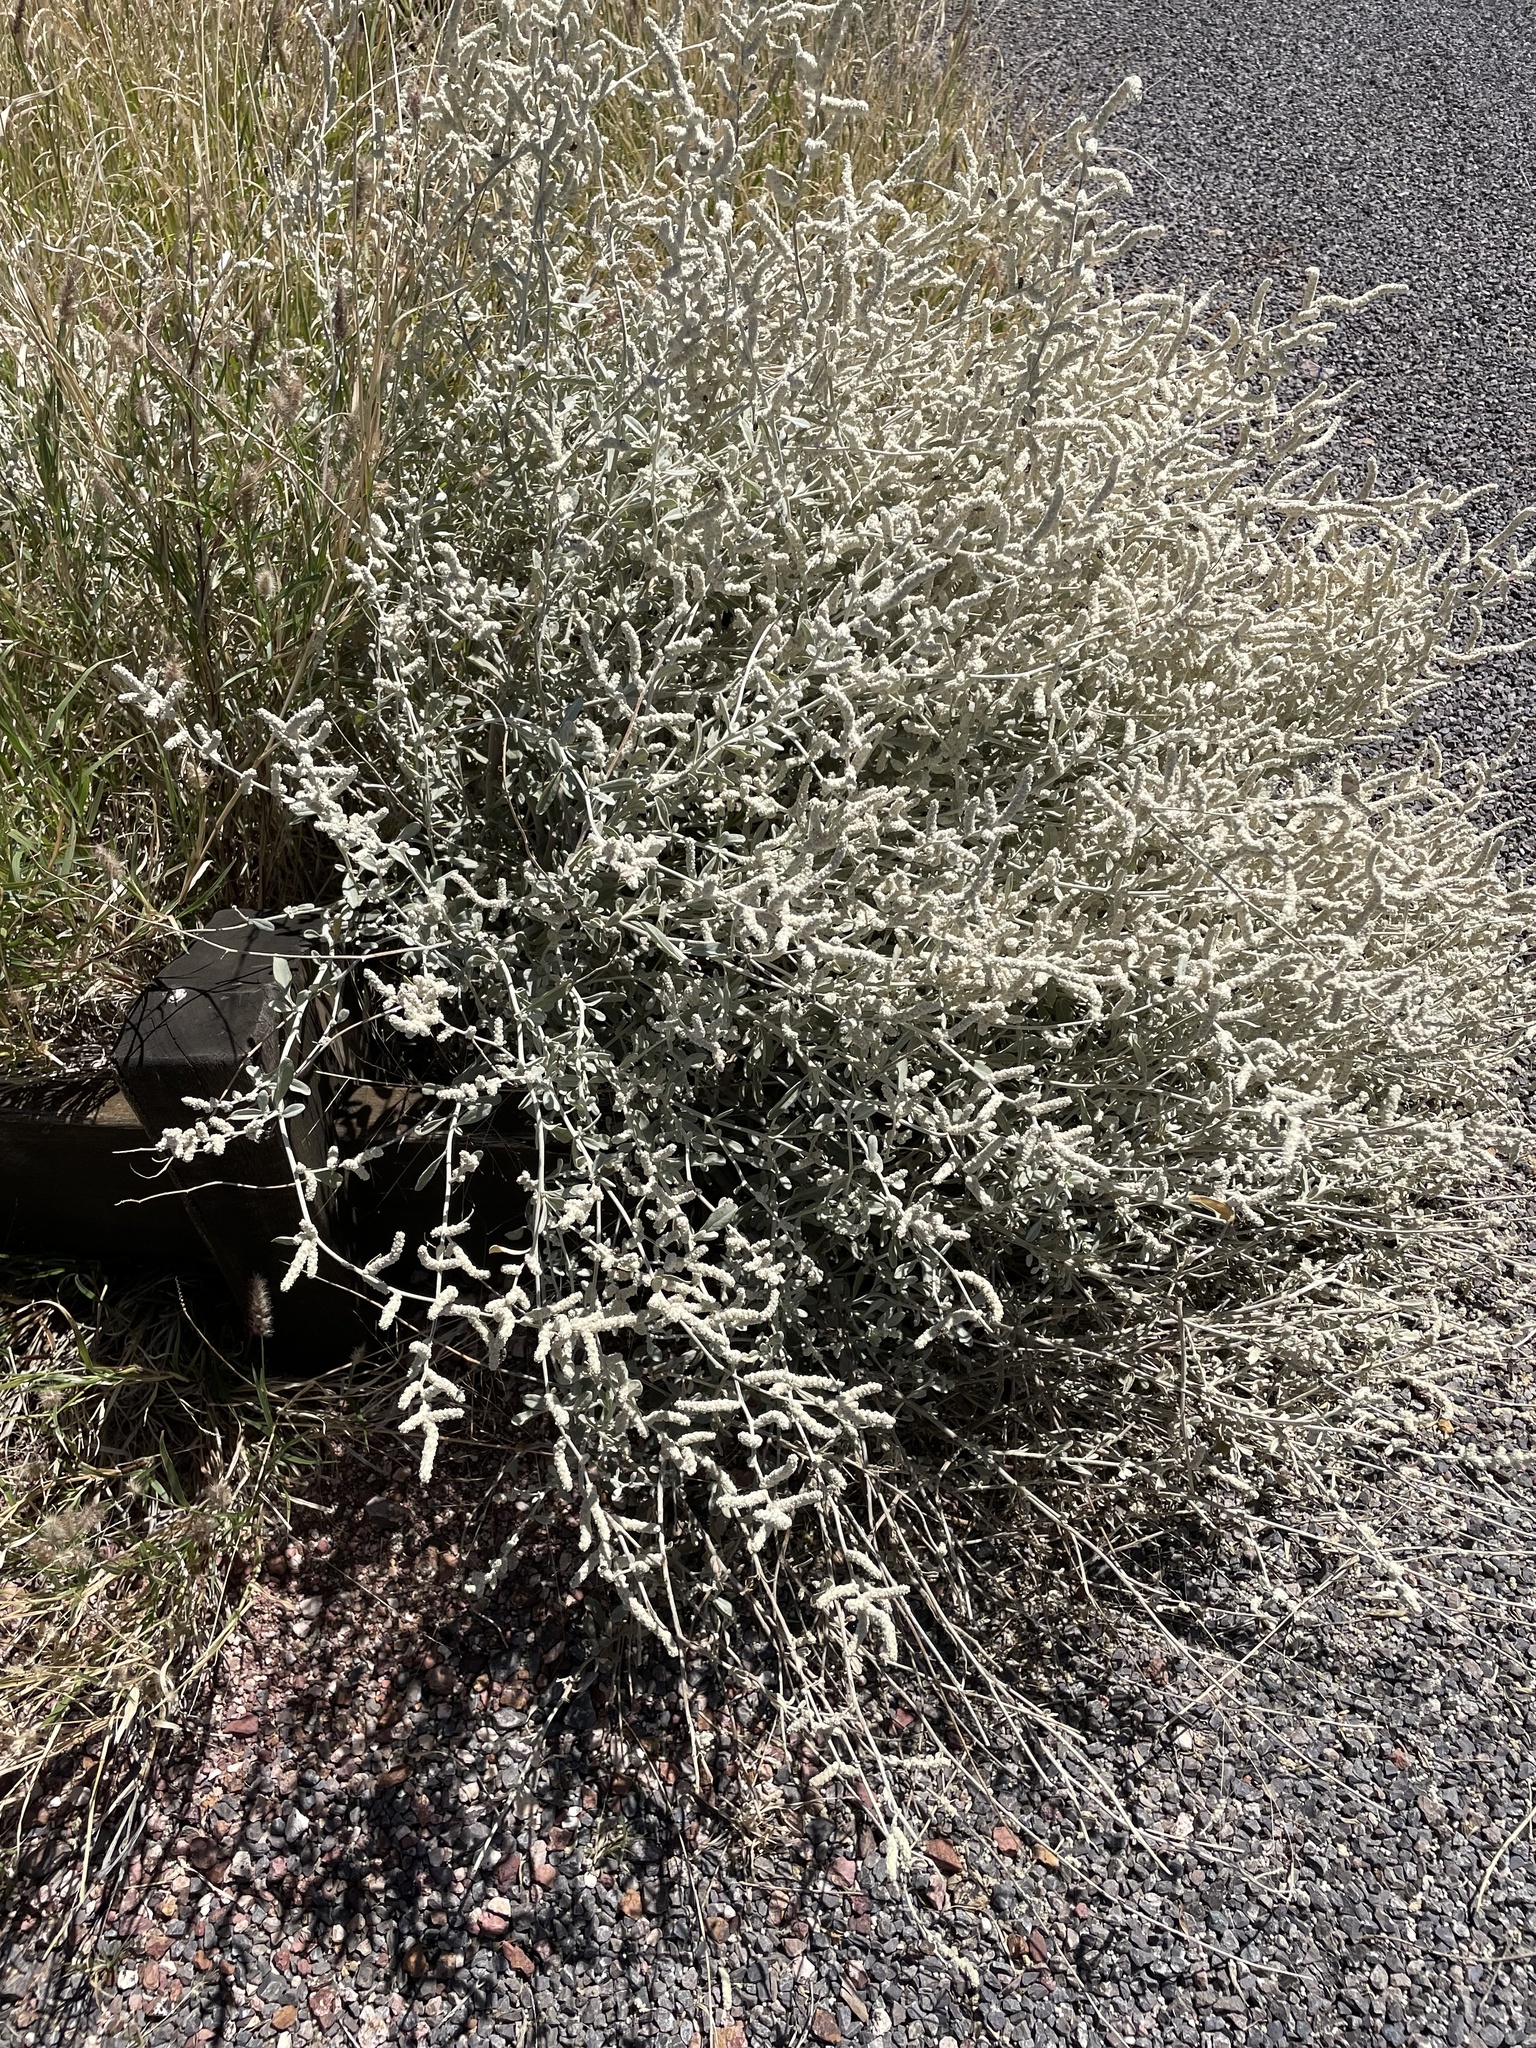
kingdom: Plantae
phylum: Tracheophyta
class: Magnoliopsida
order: Caryophyllales
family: Amaranthaceae
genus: Aerva
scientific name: Aerva javanica
